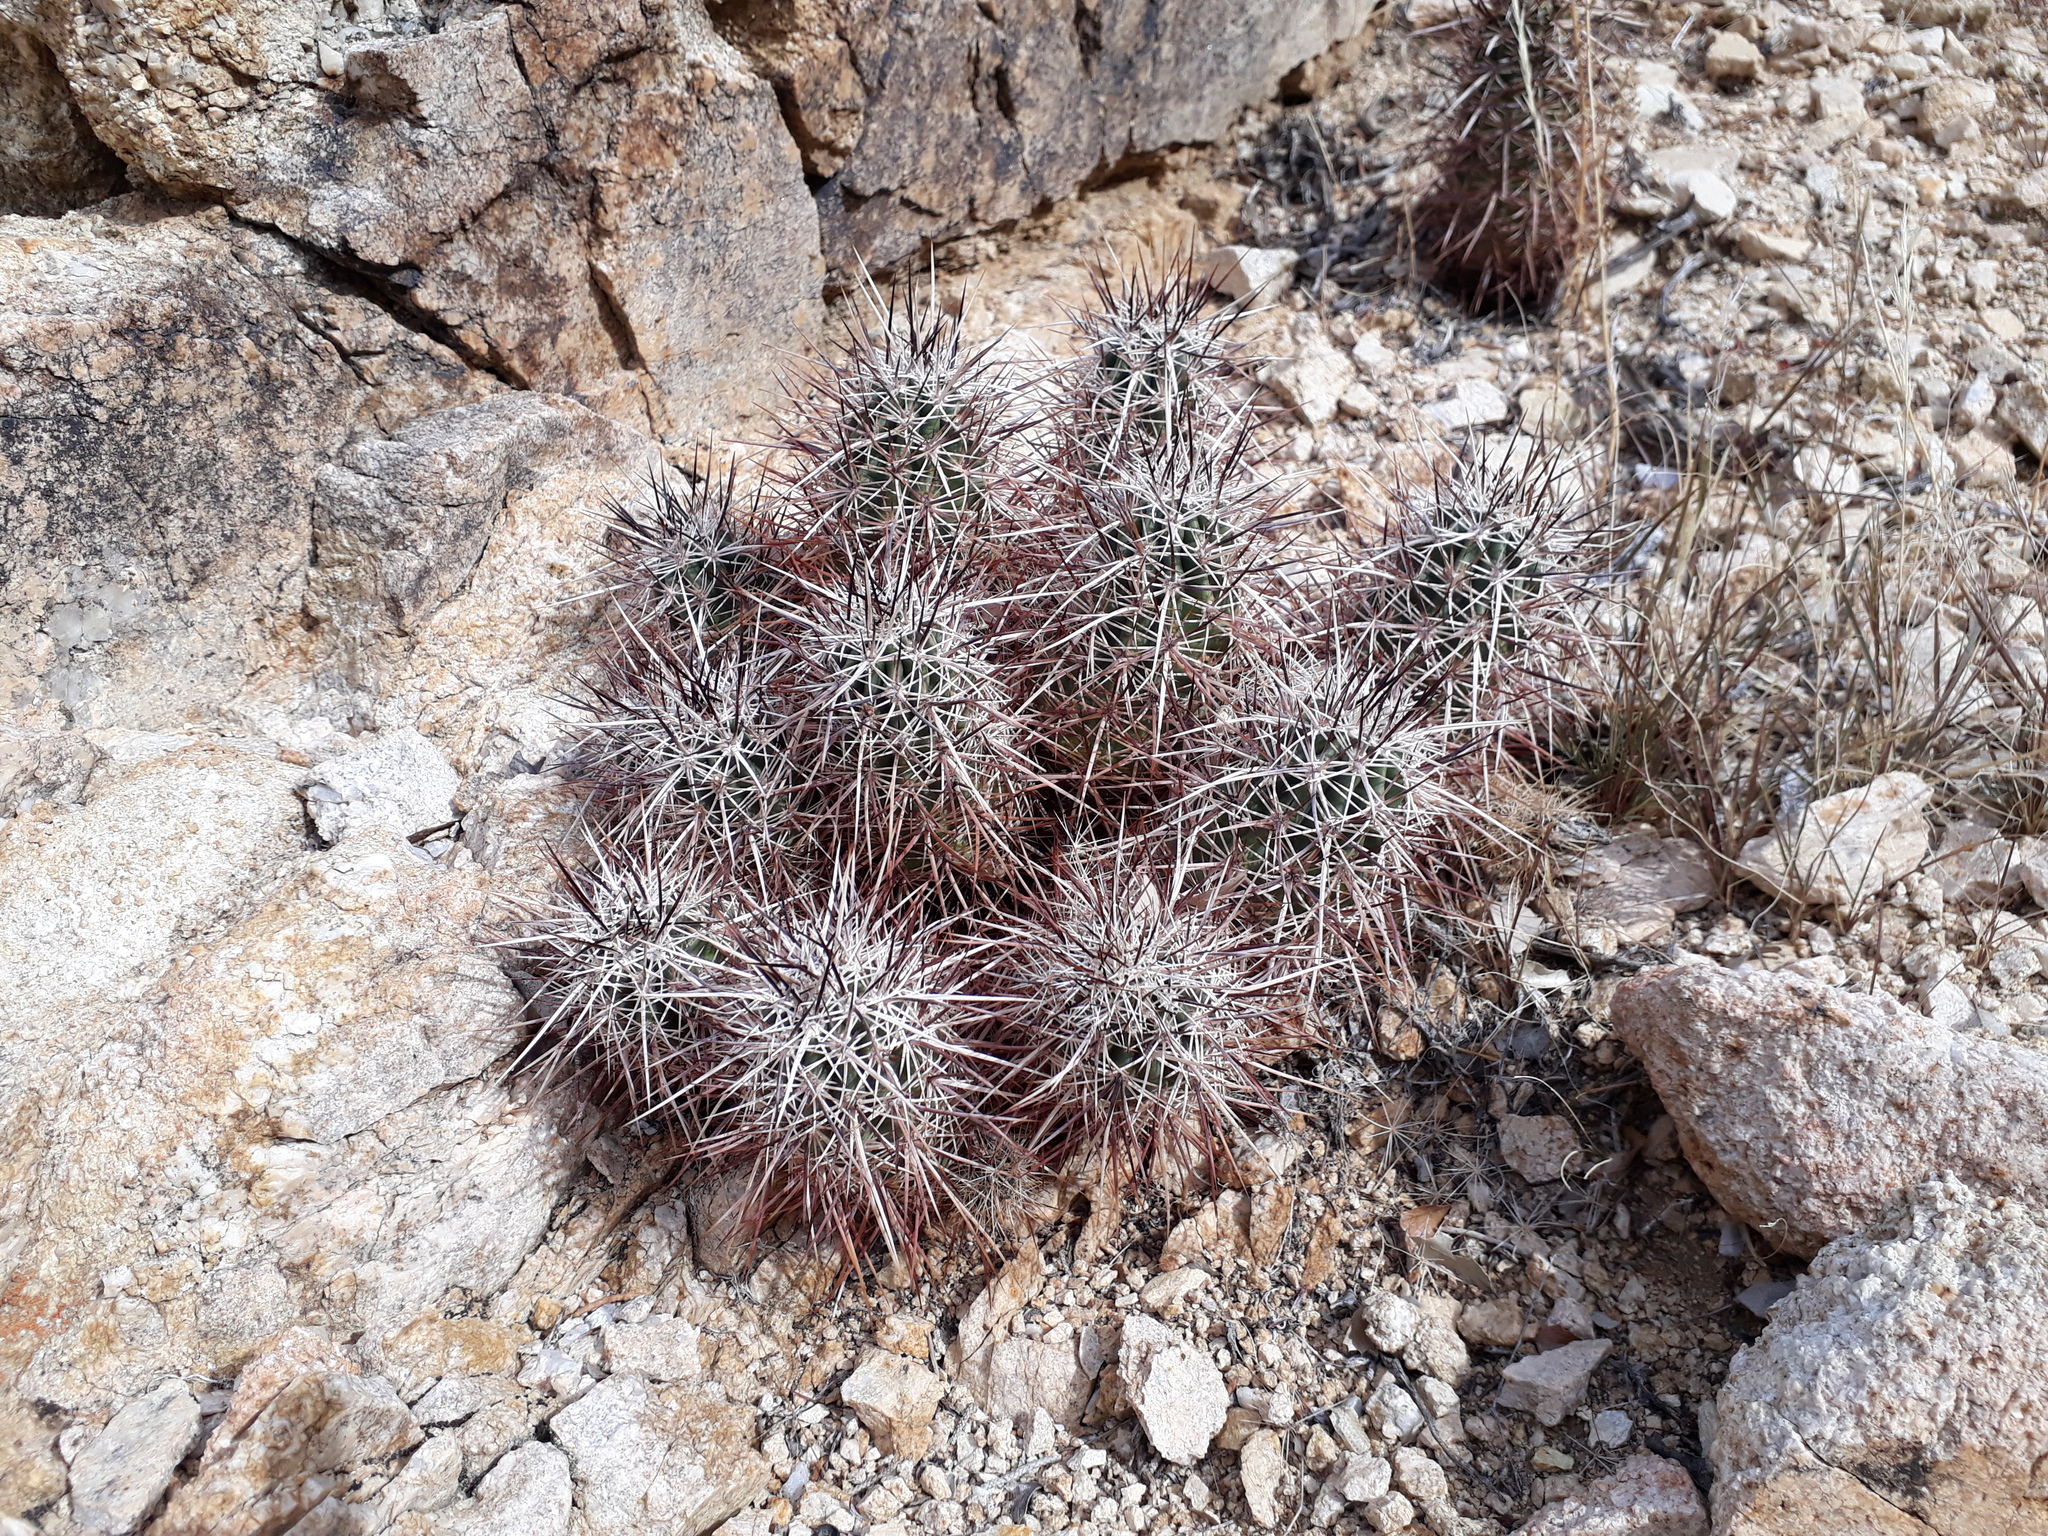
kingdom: Plantae
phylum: Tracheophyta
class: Magnoliopsida
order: Caryophyllales
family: Cactaceae
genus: Echinocereus
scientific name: Echinocereus engelmannii
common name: Engelmann's hedgehog cactus
